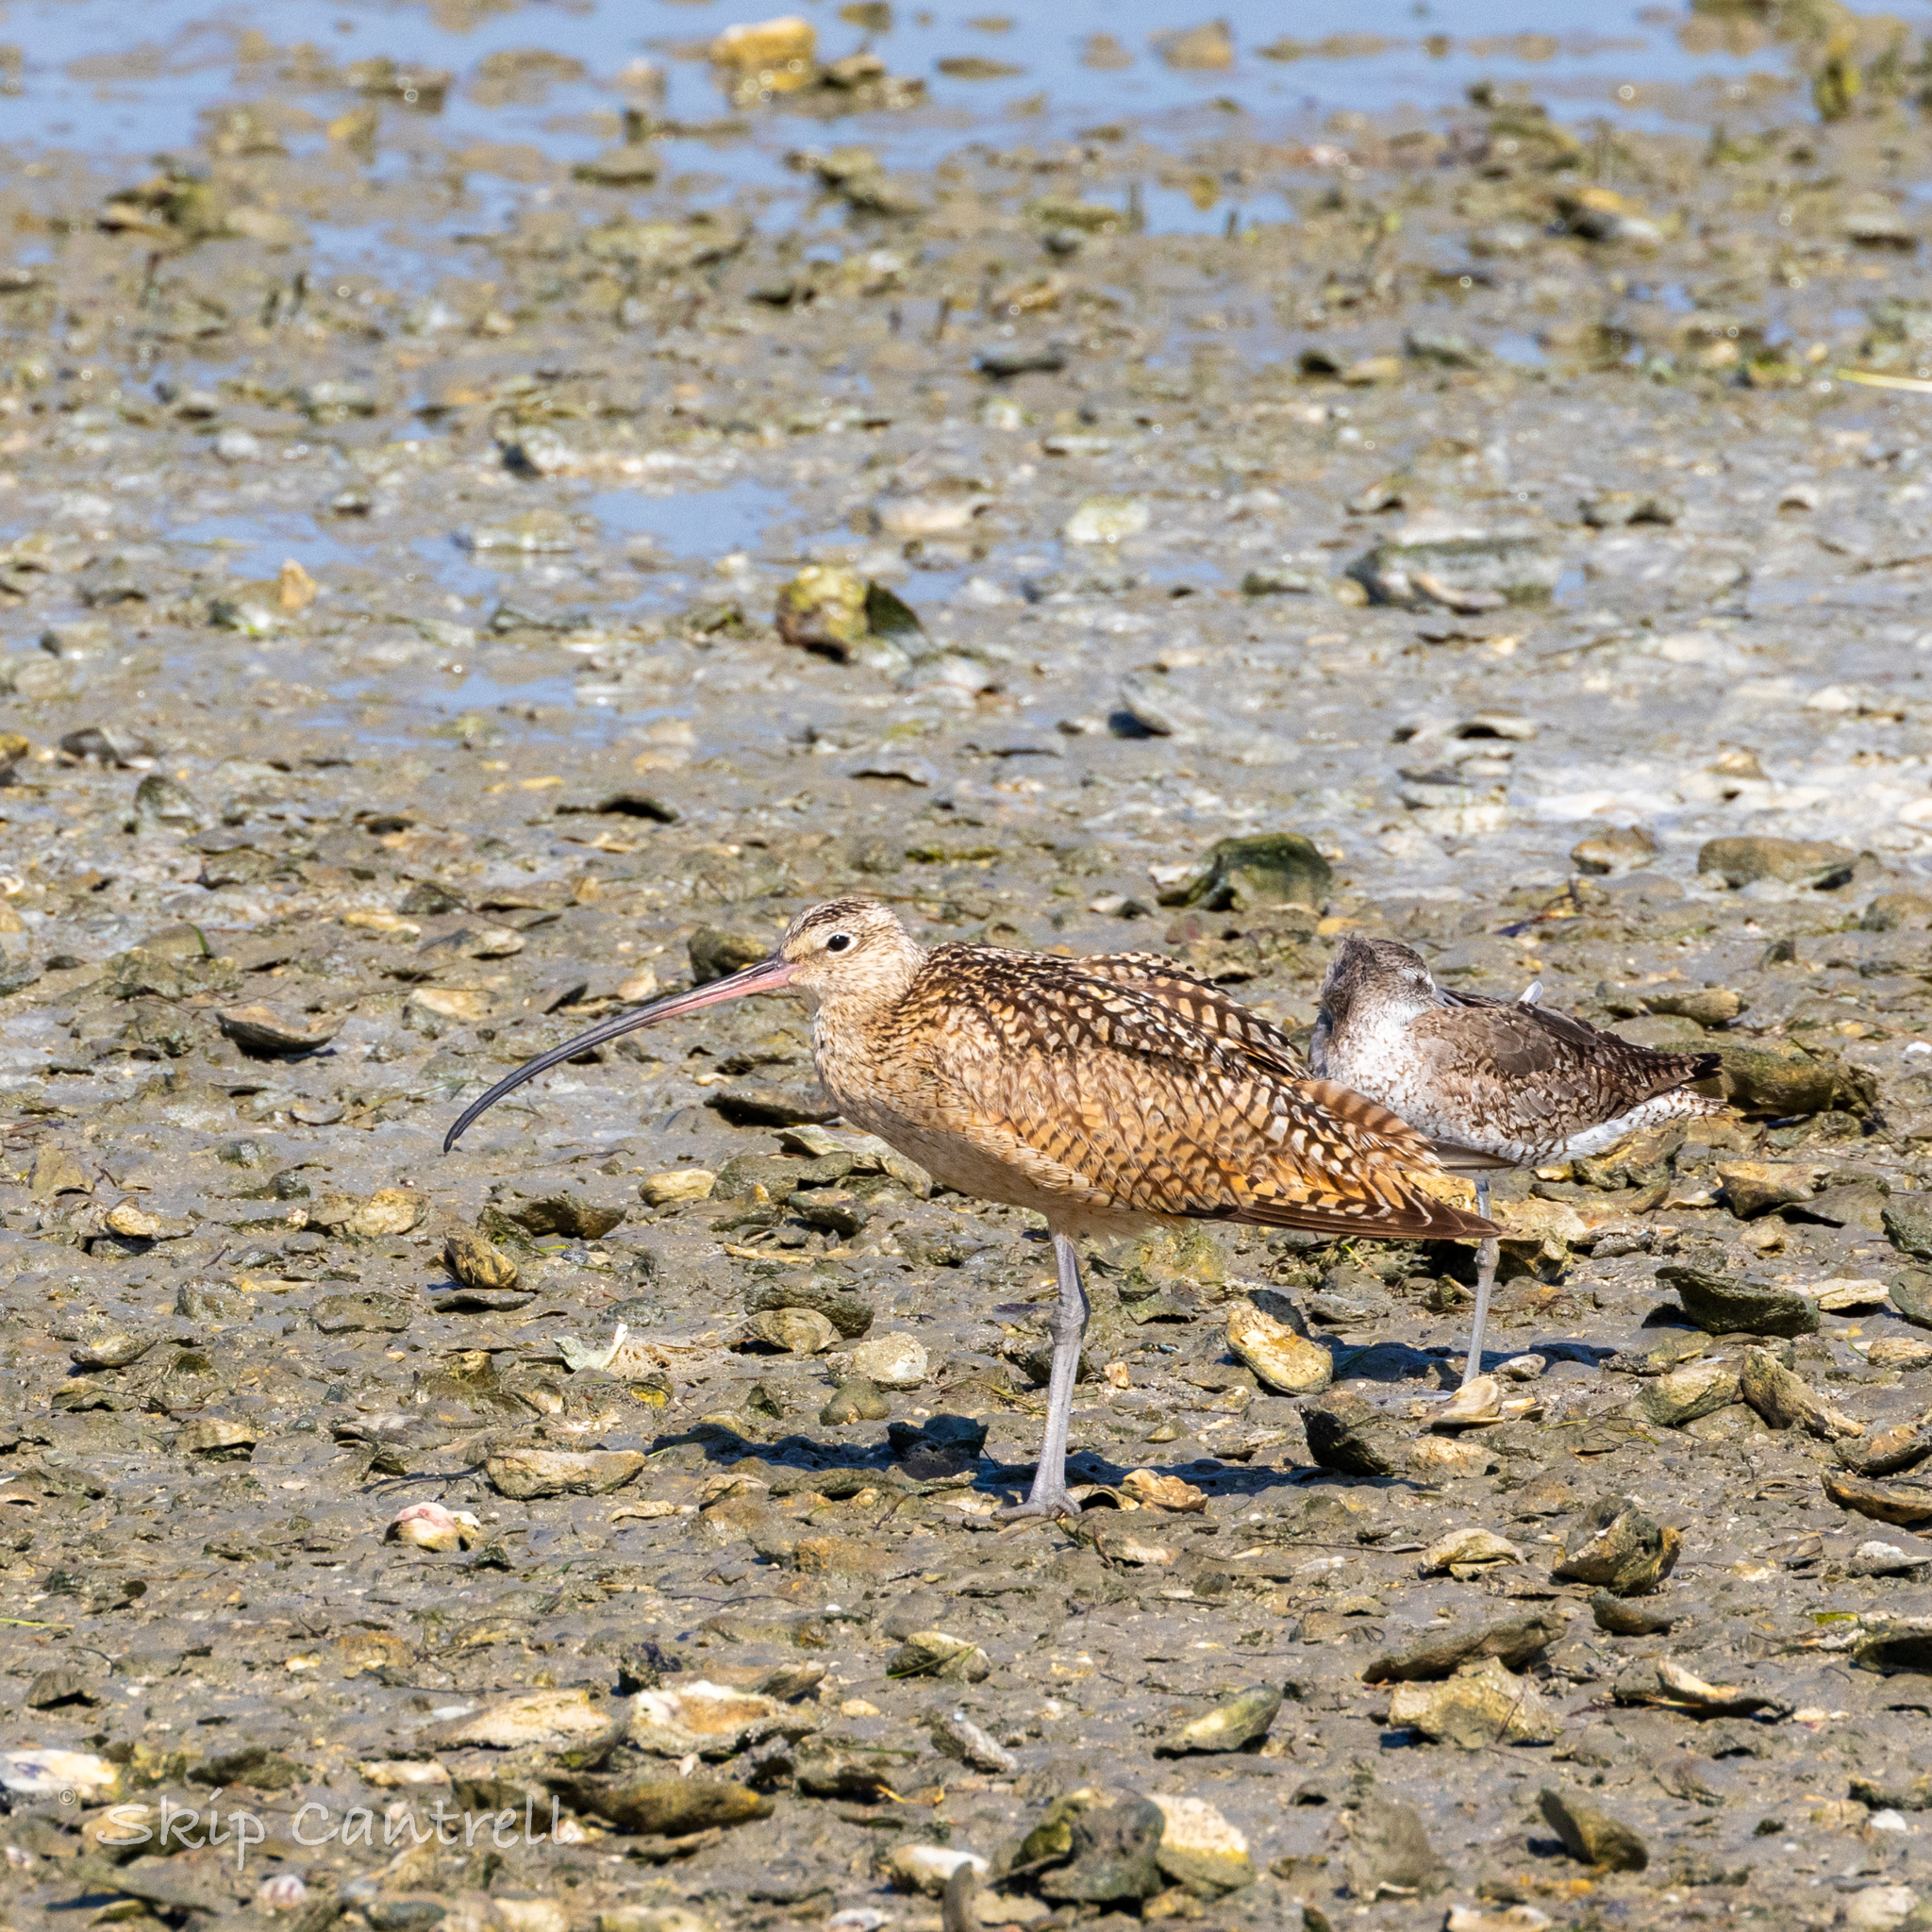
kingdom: Animalia
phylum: Chordata
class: Aves
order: Charadriiformes
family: Scolopacidae
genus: Numenius
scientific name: Numenius americanus
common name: Long-billed curlew
